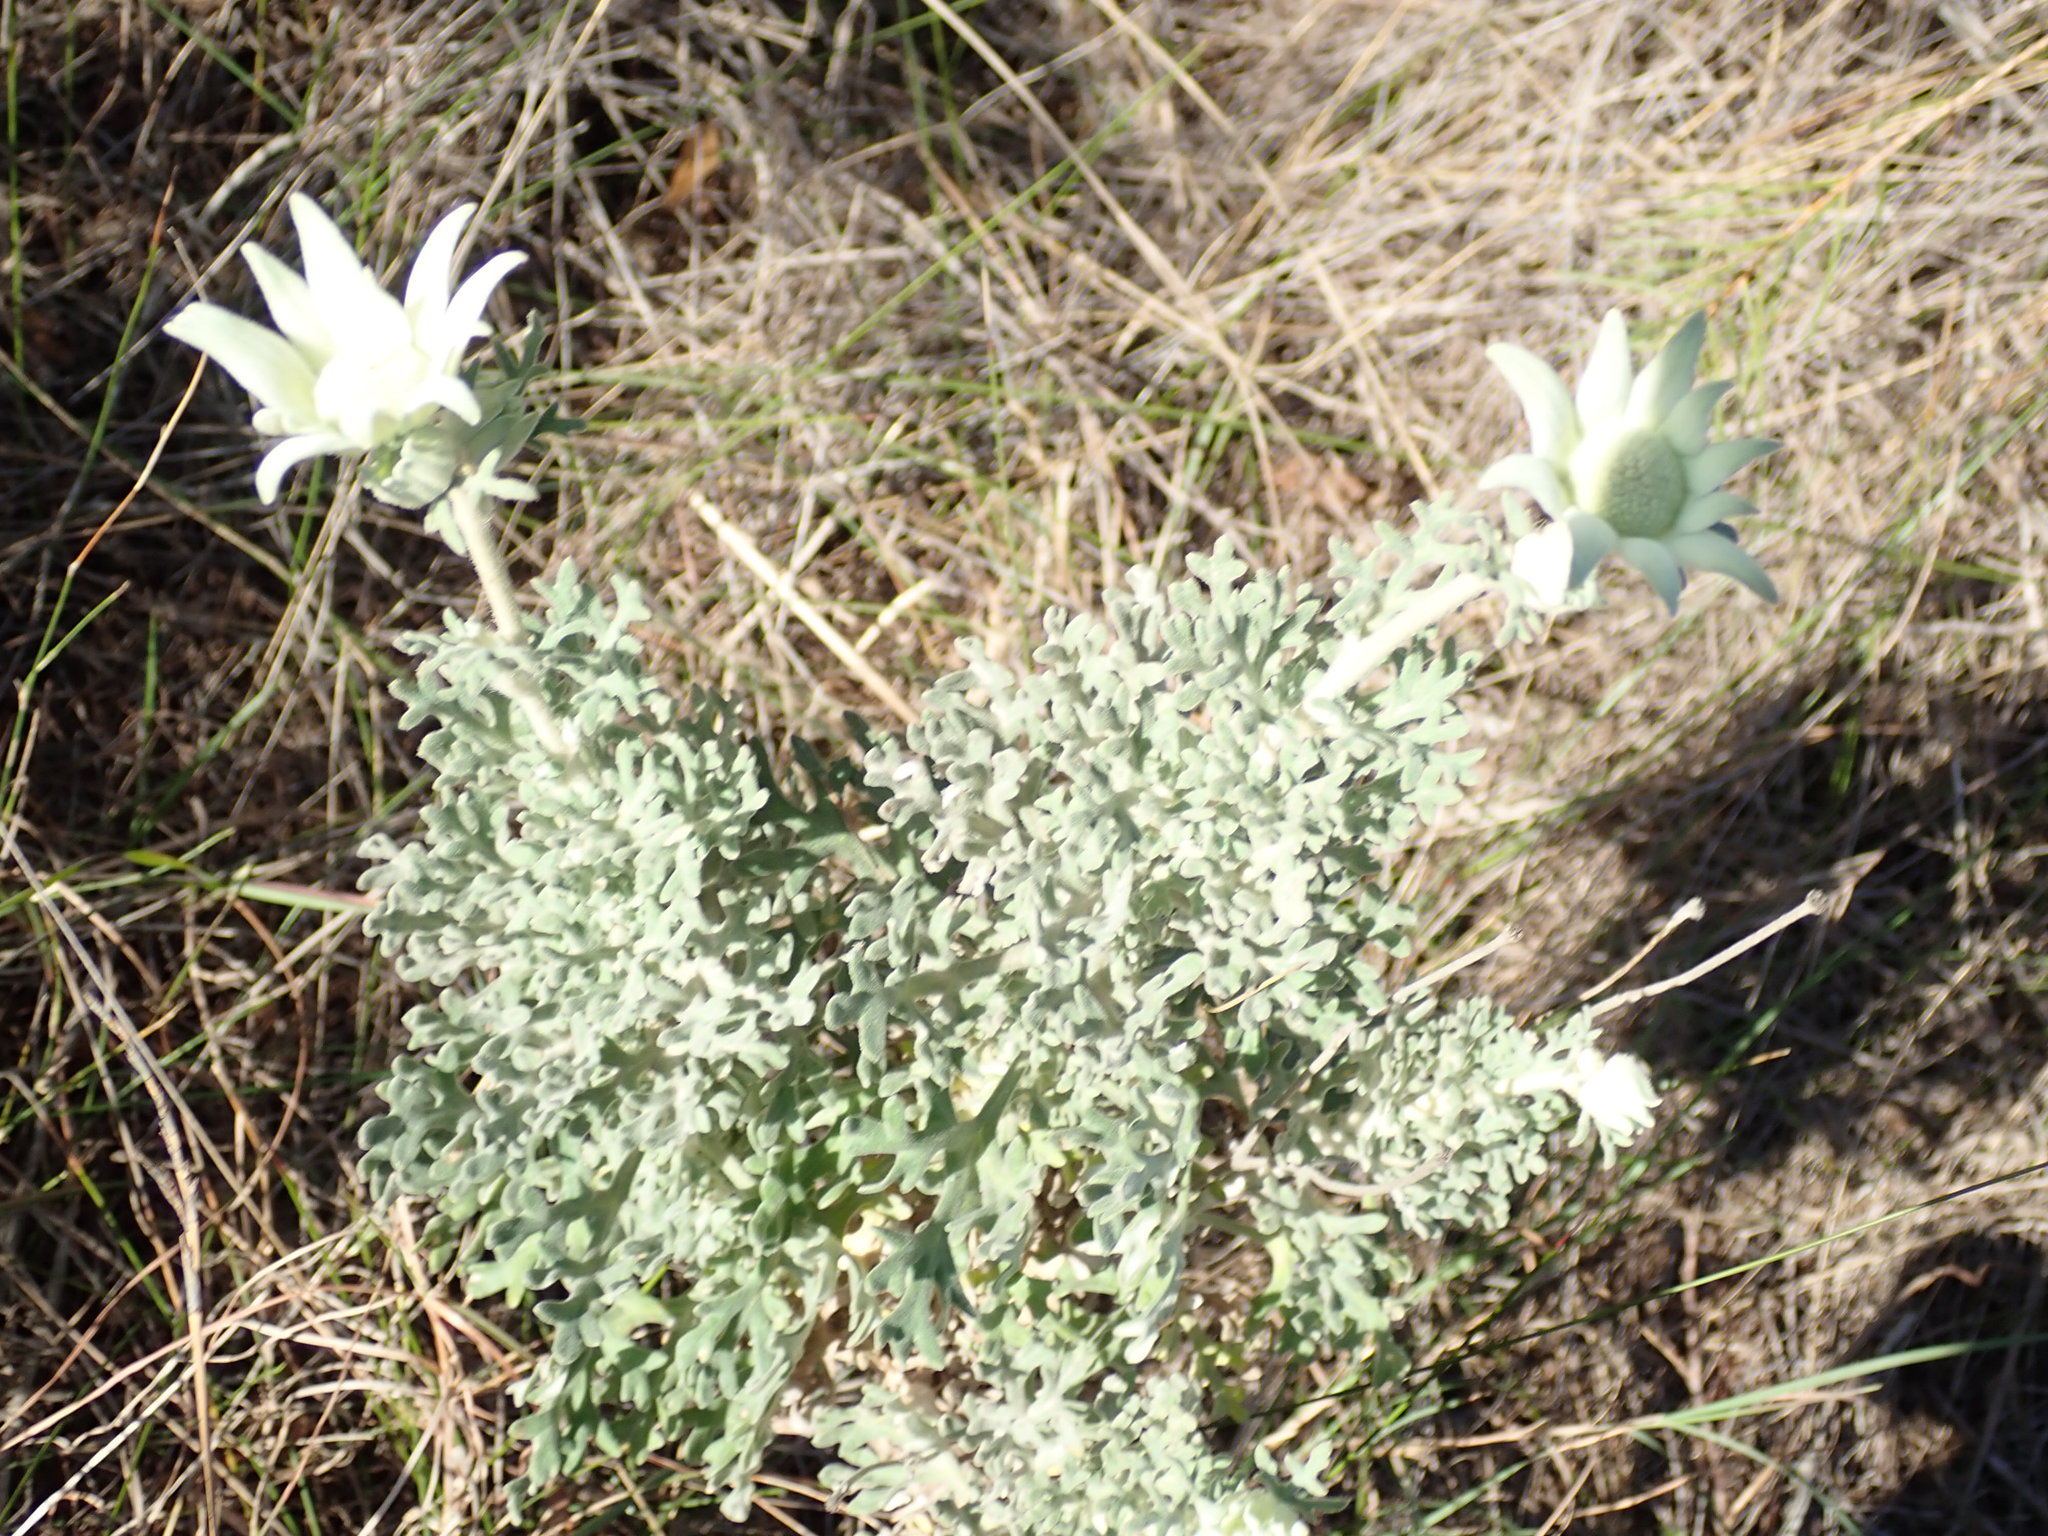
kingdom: Plantae
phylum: Tracheophyta
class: Magnoliopsida
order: Apiales
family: Apiaceae
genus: Actinotus
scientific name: Actinotus helianthi
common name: Flannel-flower
